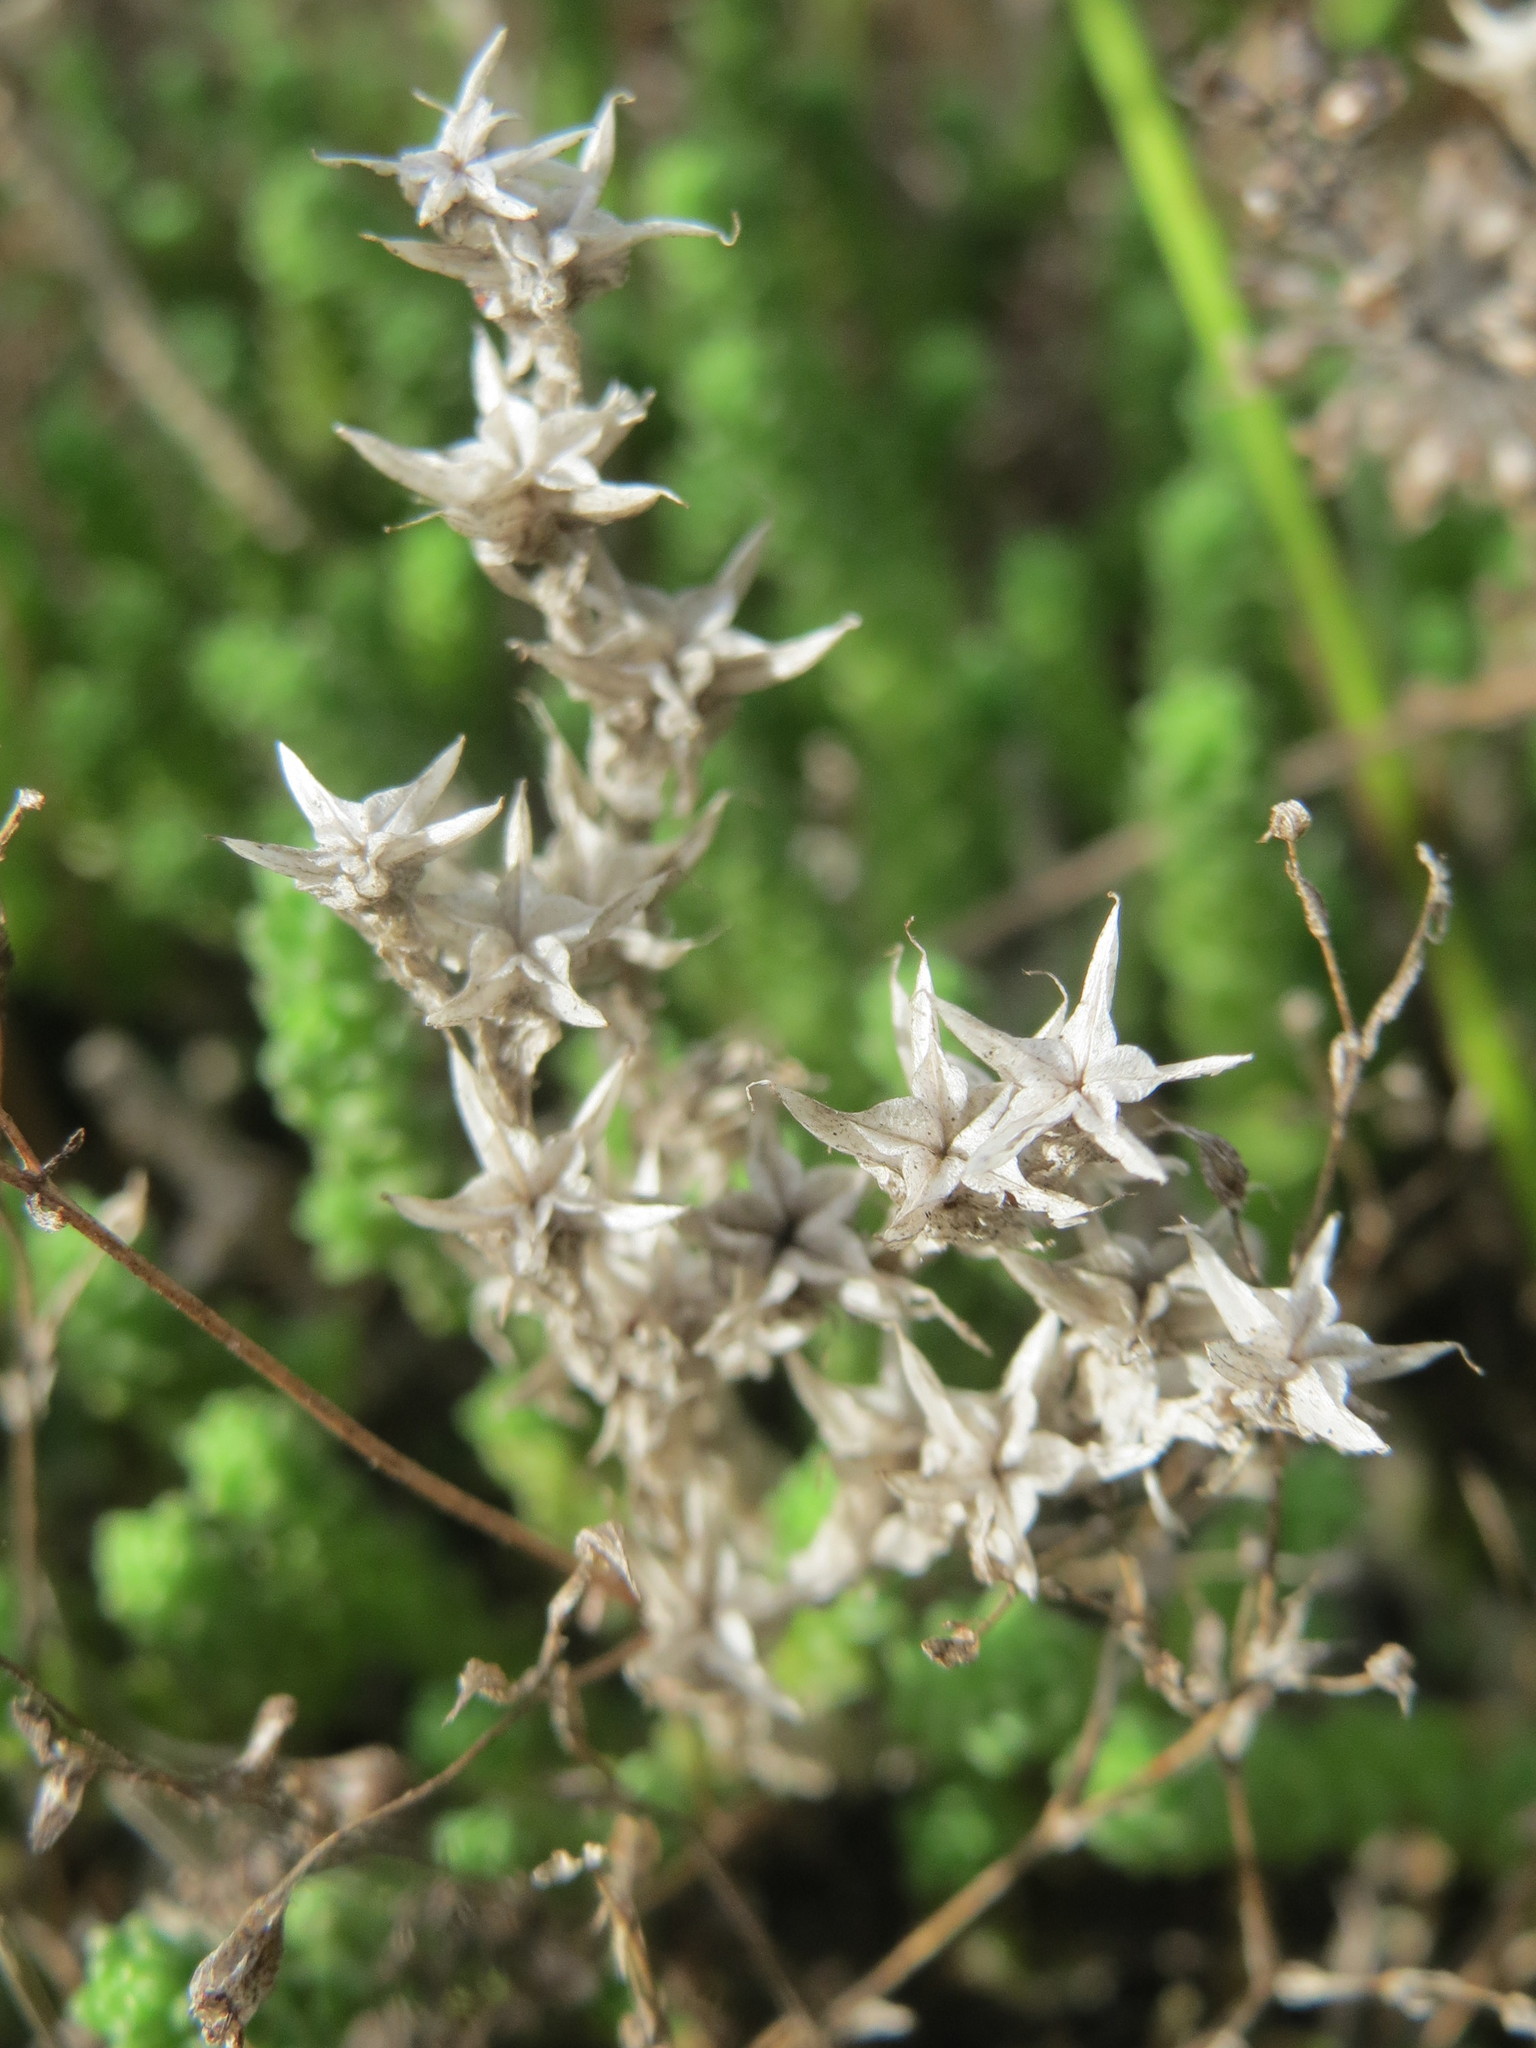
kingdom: Plantae
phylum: Tracheophyta
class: Magnoliopsida
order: Saxifragales
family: Crassulaceae
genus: Sedum
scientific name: Sedum acre
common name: Biting stonecrop
